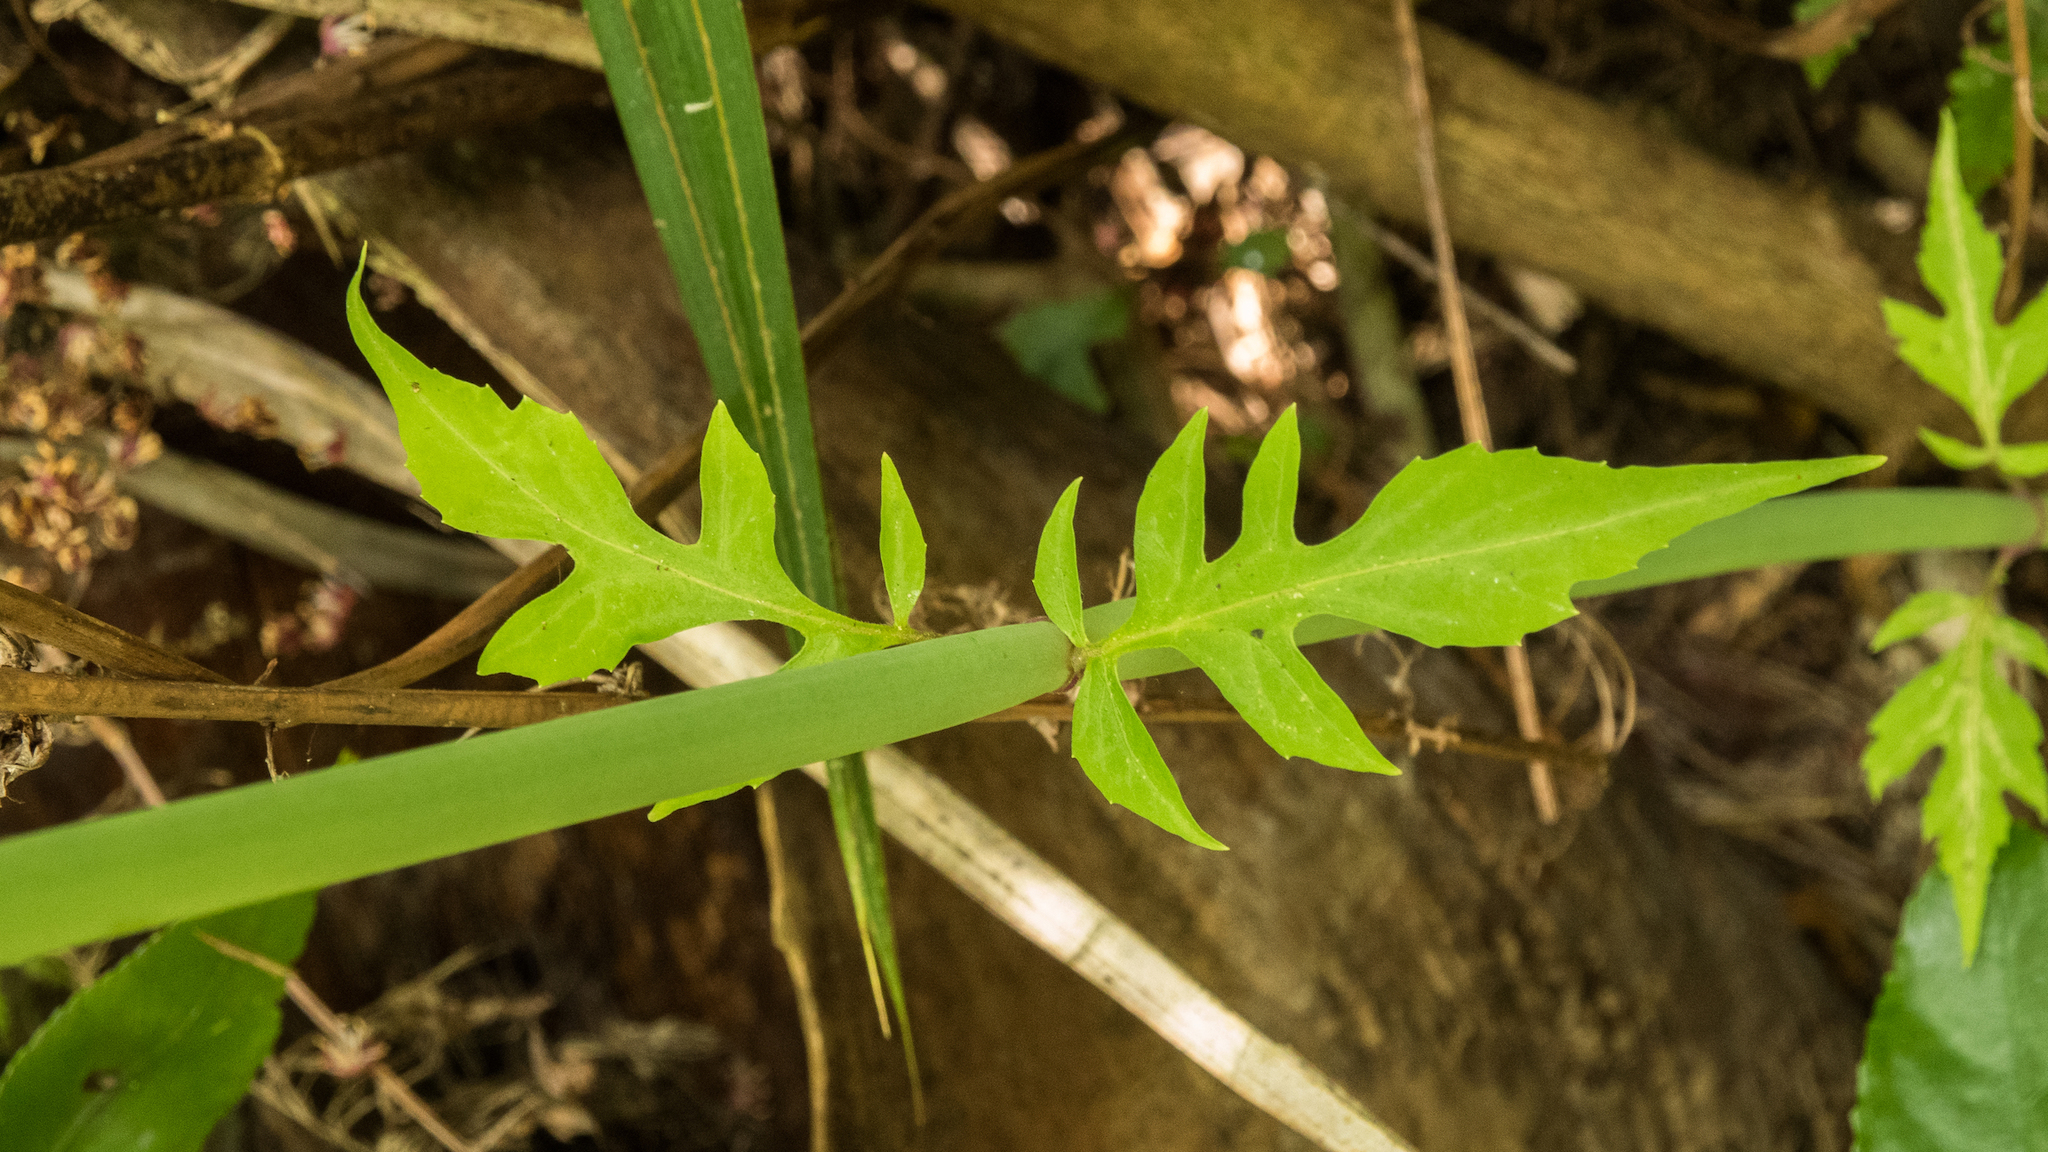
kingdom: Plantae
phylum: Tracheophyta
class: Magnoliopsida
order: Dipsacales
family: Caprifoliaceae
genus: Leycesteria
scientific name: Leycesteria formosa
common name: Himalayan honeysuckle
